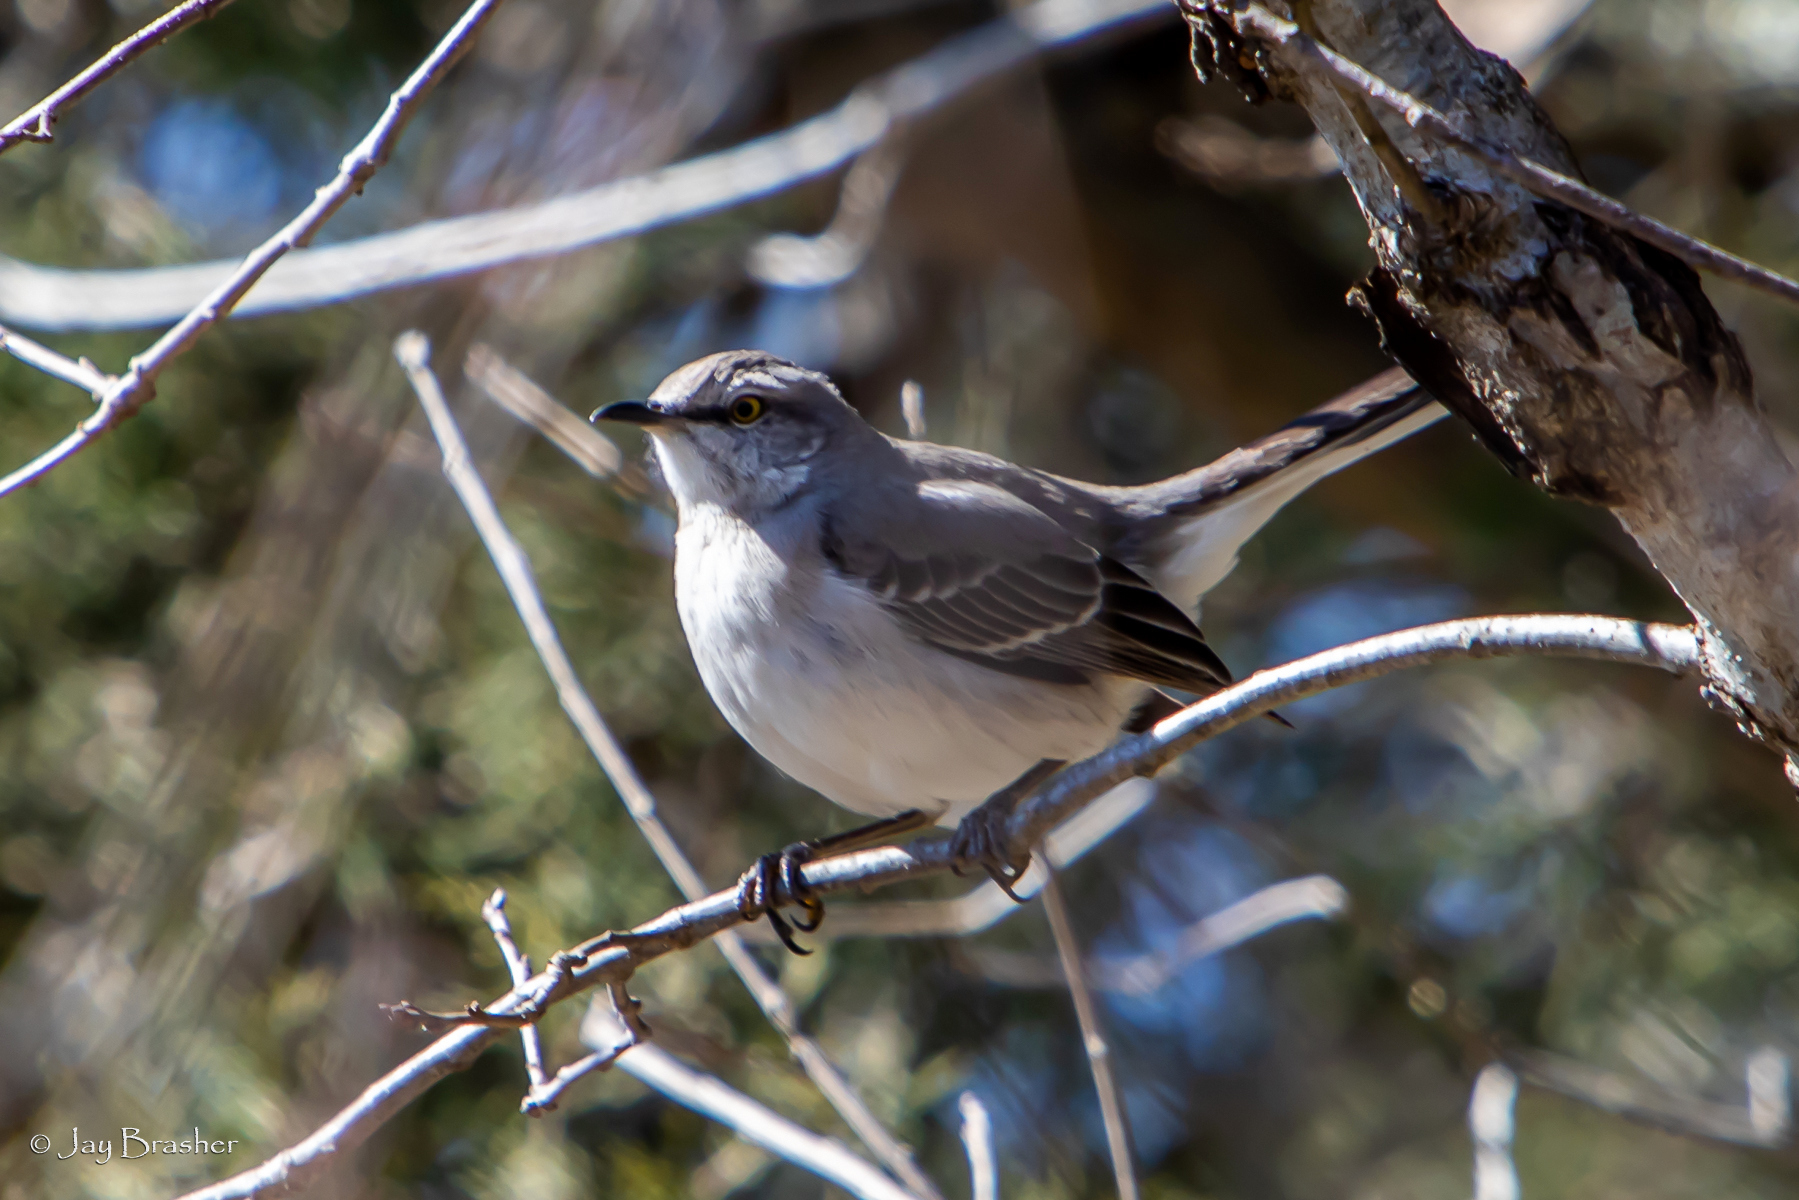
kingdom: Animalia
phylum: Chordata
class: Aves
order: Passeriformes
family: Mimidae
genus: Mimus
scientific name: Mimus polyglottos
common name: Northern mockingbird
